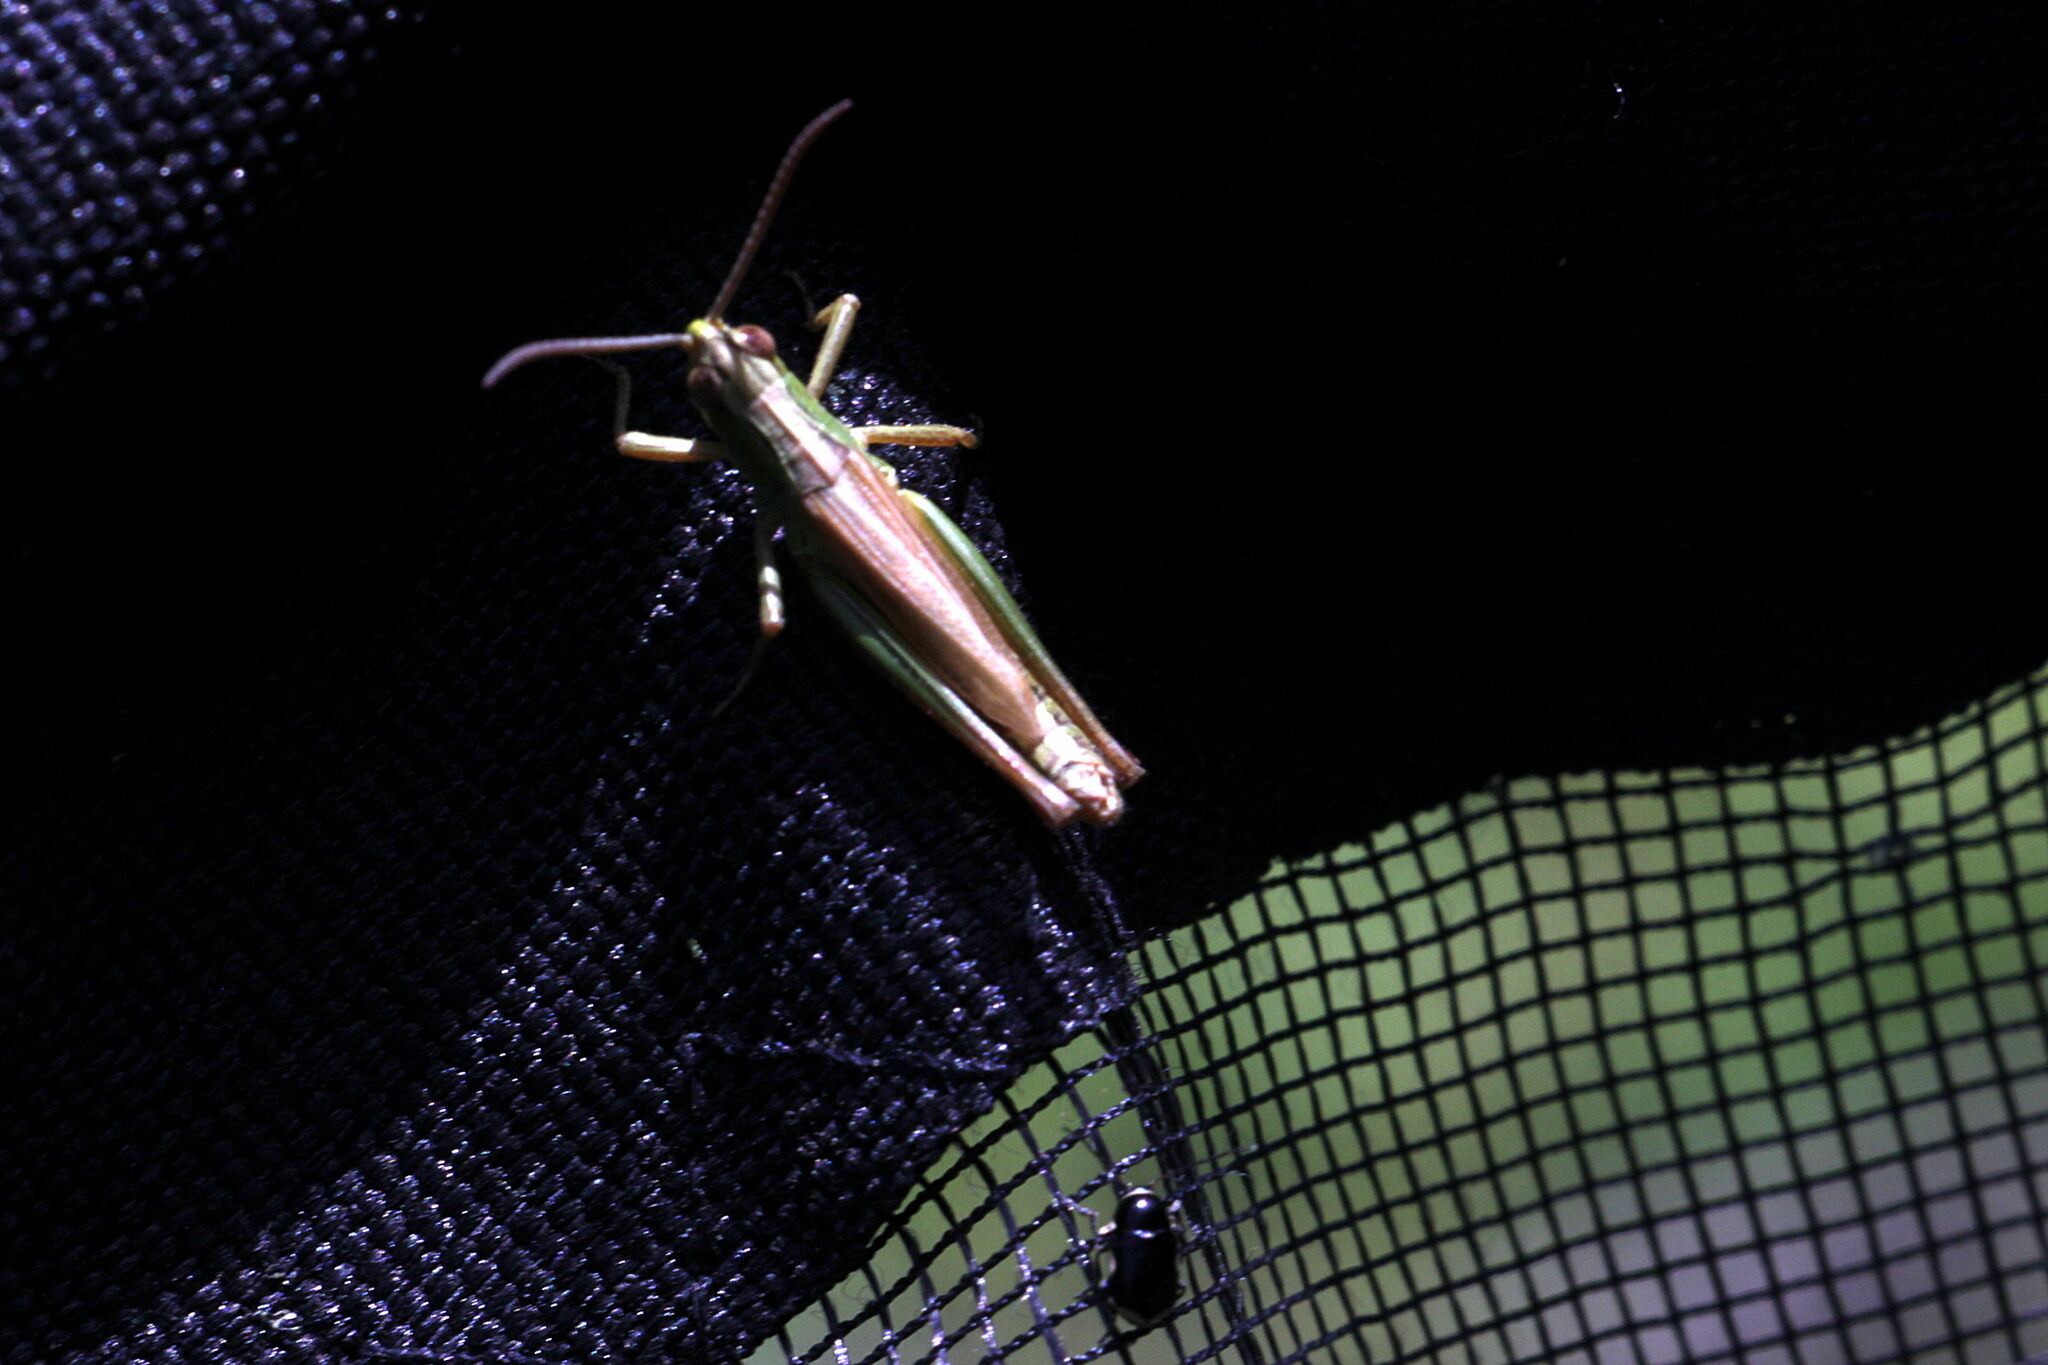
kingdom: Animalia
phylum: Arthropoda
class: Insecta
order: Orthoptera
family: Acrididae
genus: Pseudochorthippus
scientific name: Pseudochorthippus parallelus
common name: Meadow grasshopper
